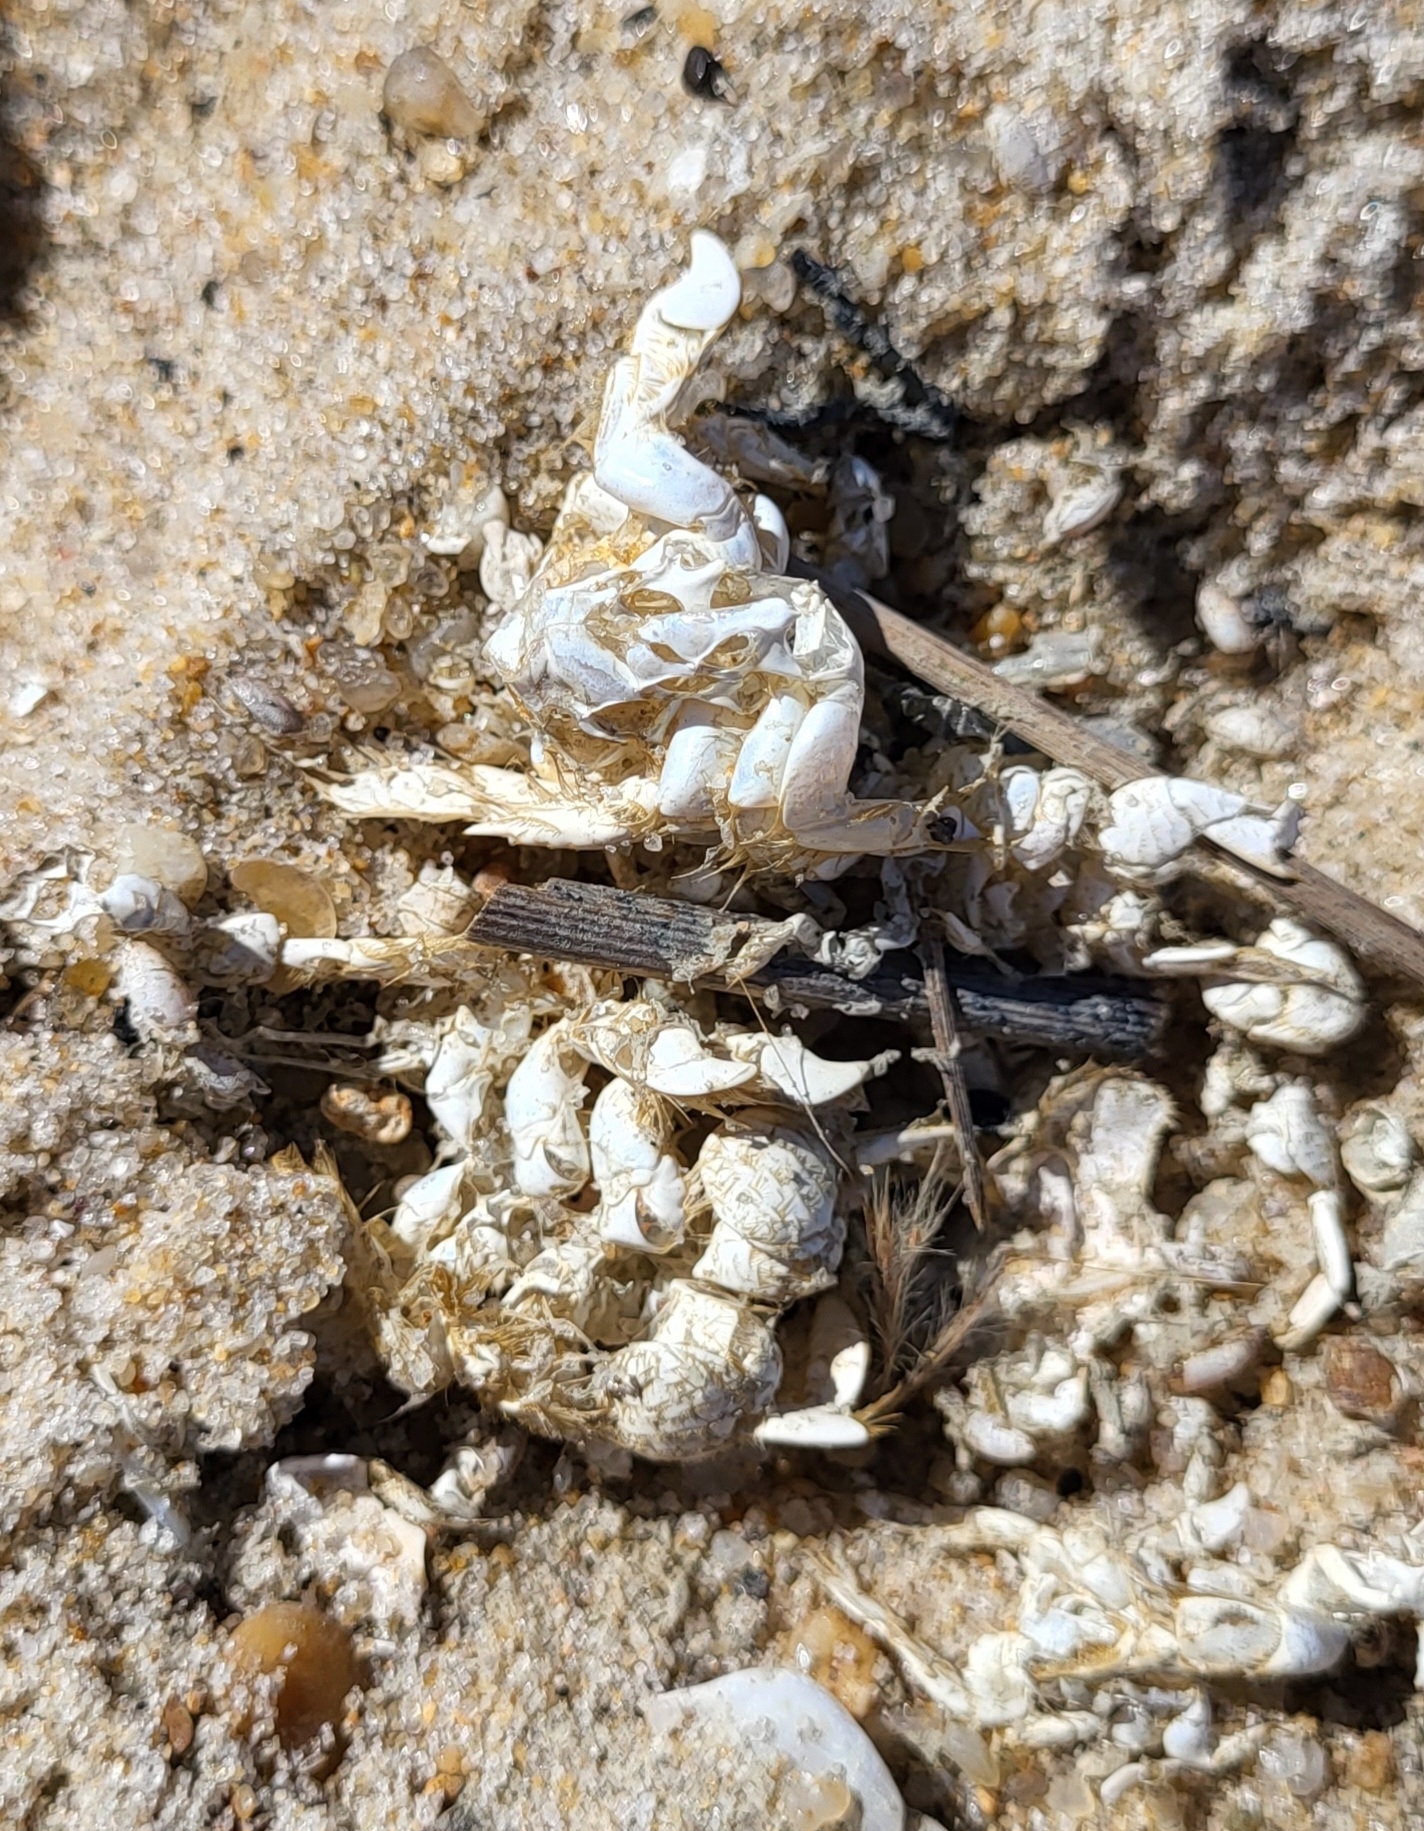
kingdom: Animalia
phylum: Arthropoda
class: Malacostraca
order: Decapoda
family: Hippidae
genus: Emerita
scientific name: Emerita talpoida
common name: Atlantic sand crab
